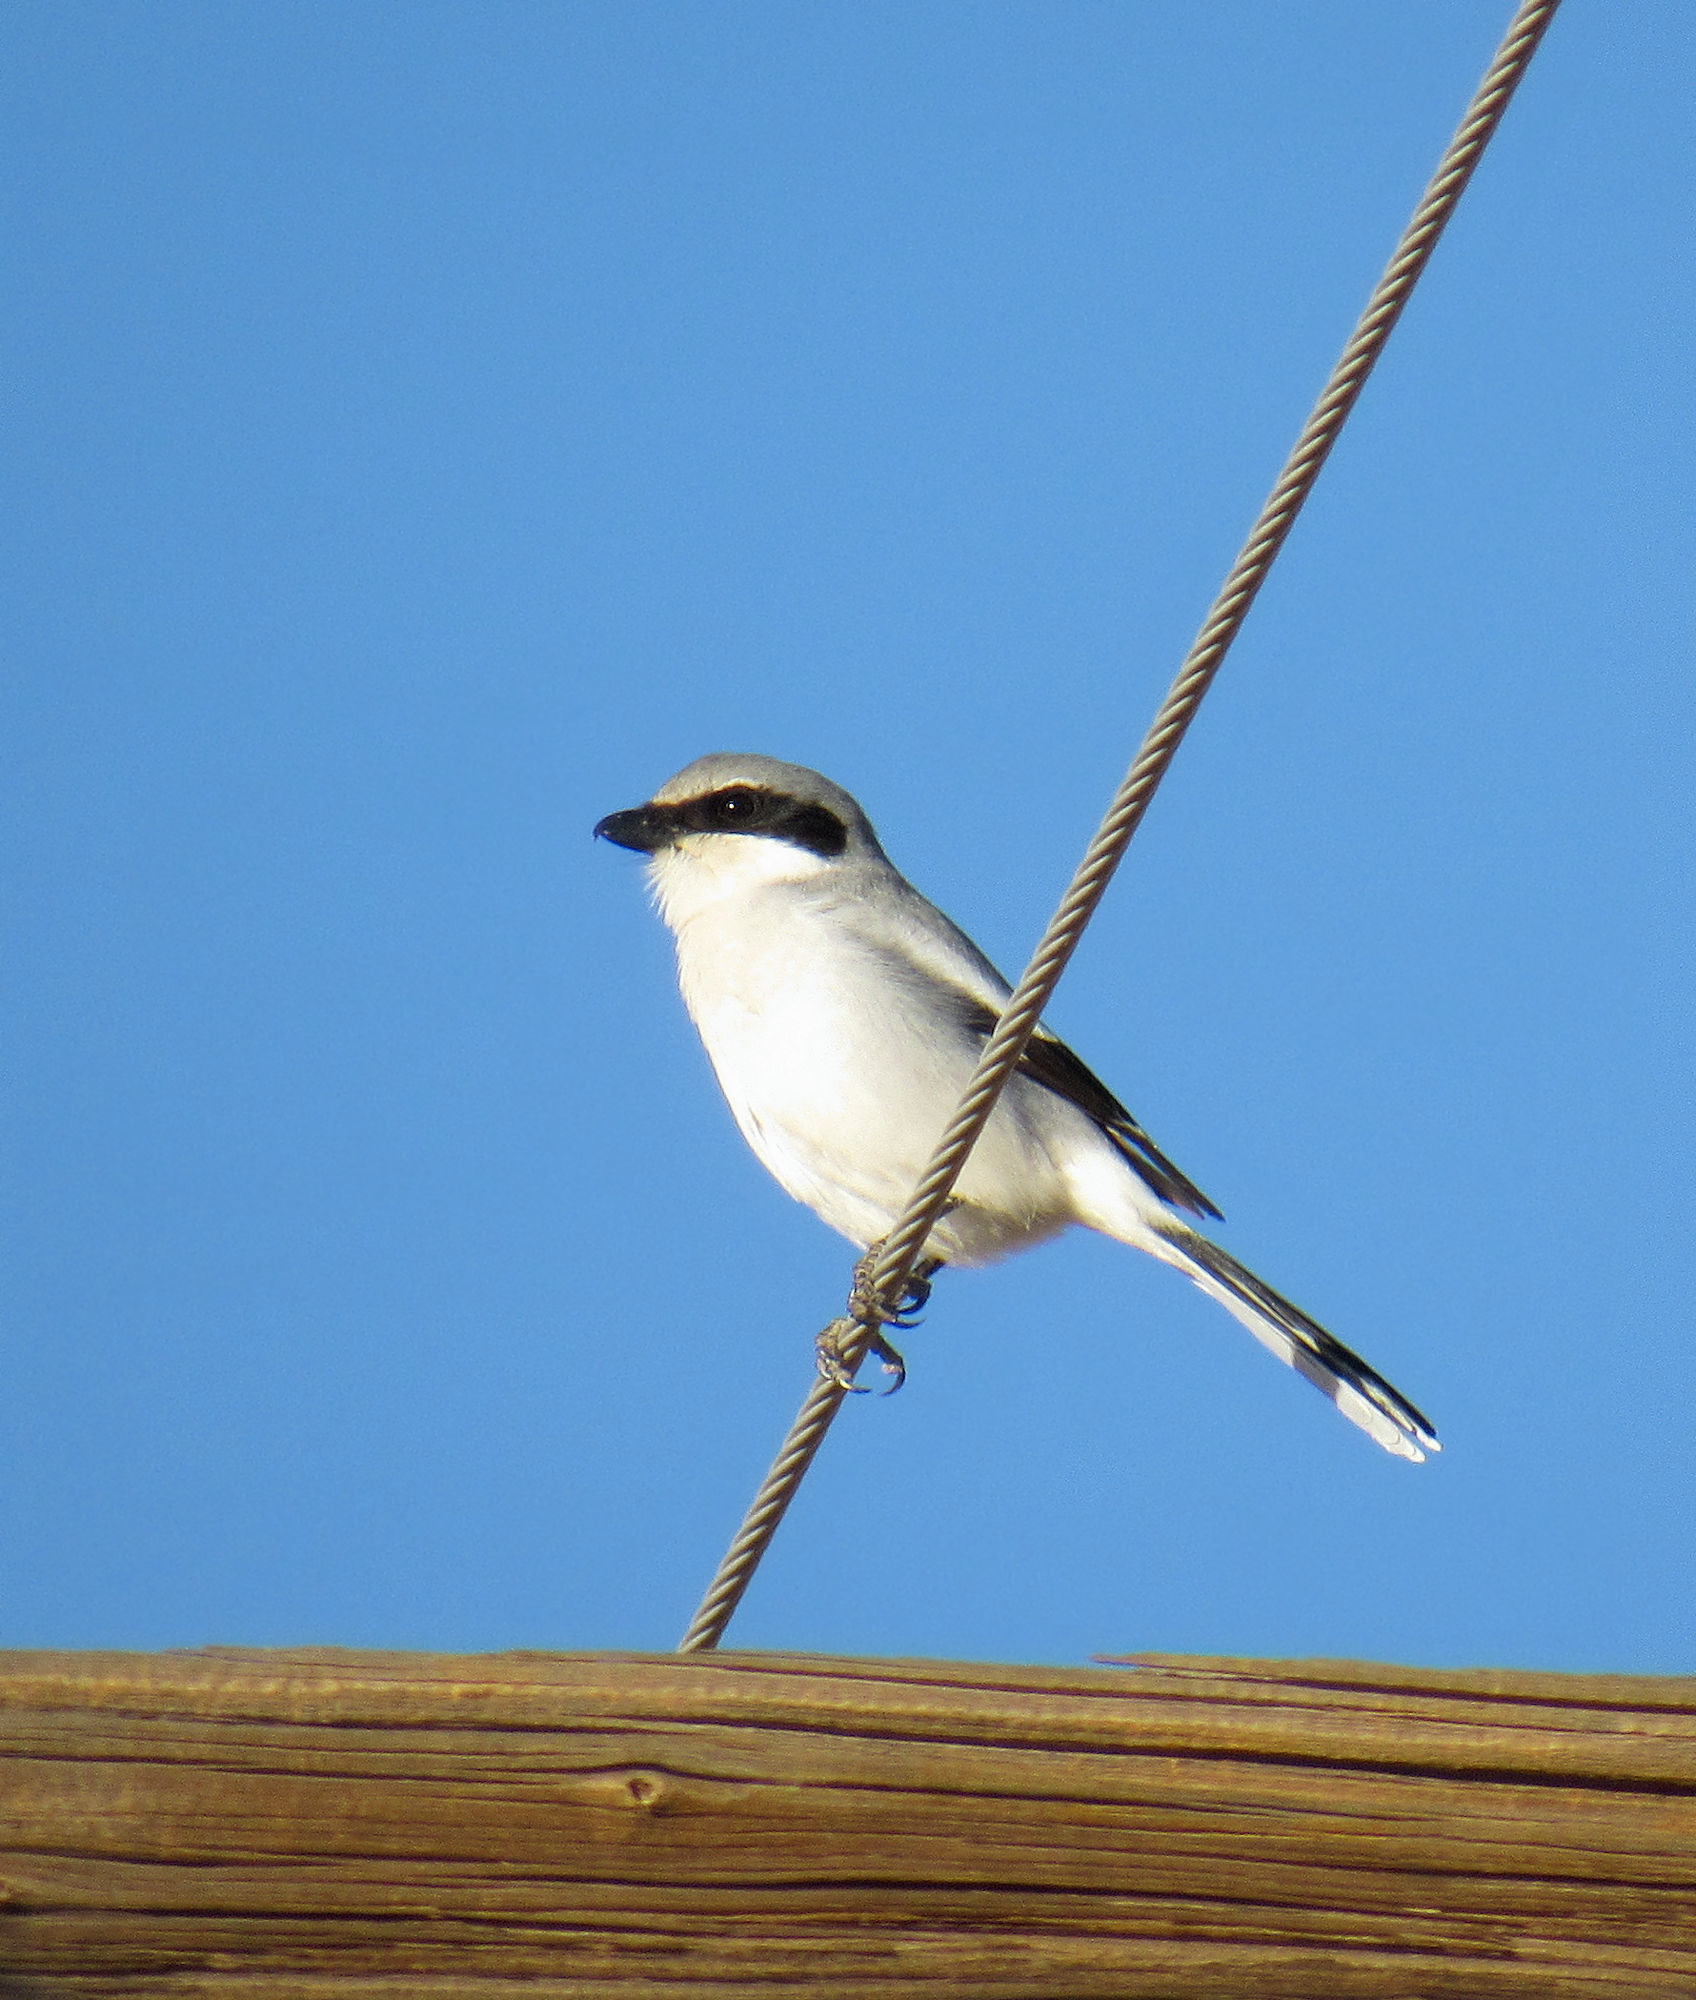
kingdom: Animalia
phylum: Chordata
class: Aves
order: Passeriformes
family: Laniidae
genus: Lanius
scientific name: Lanius ludovicianus
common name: Loggerhead shrike
